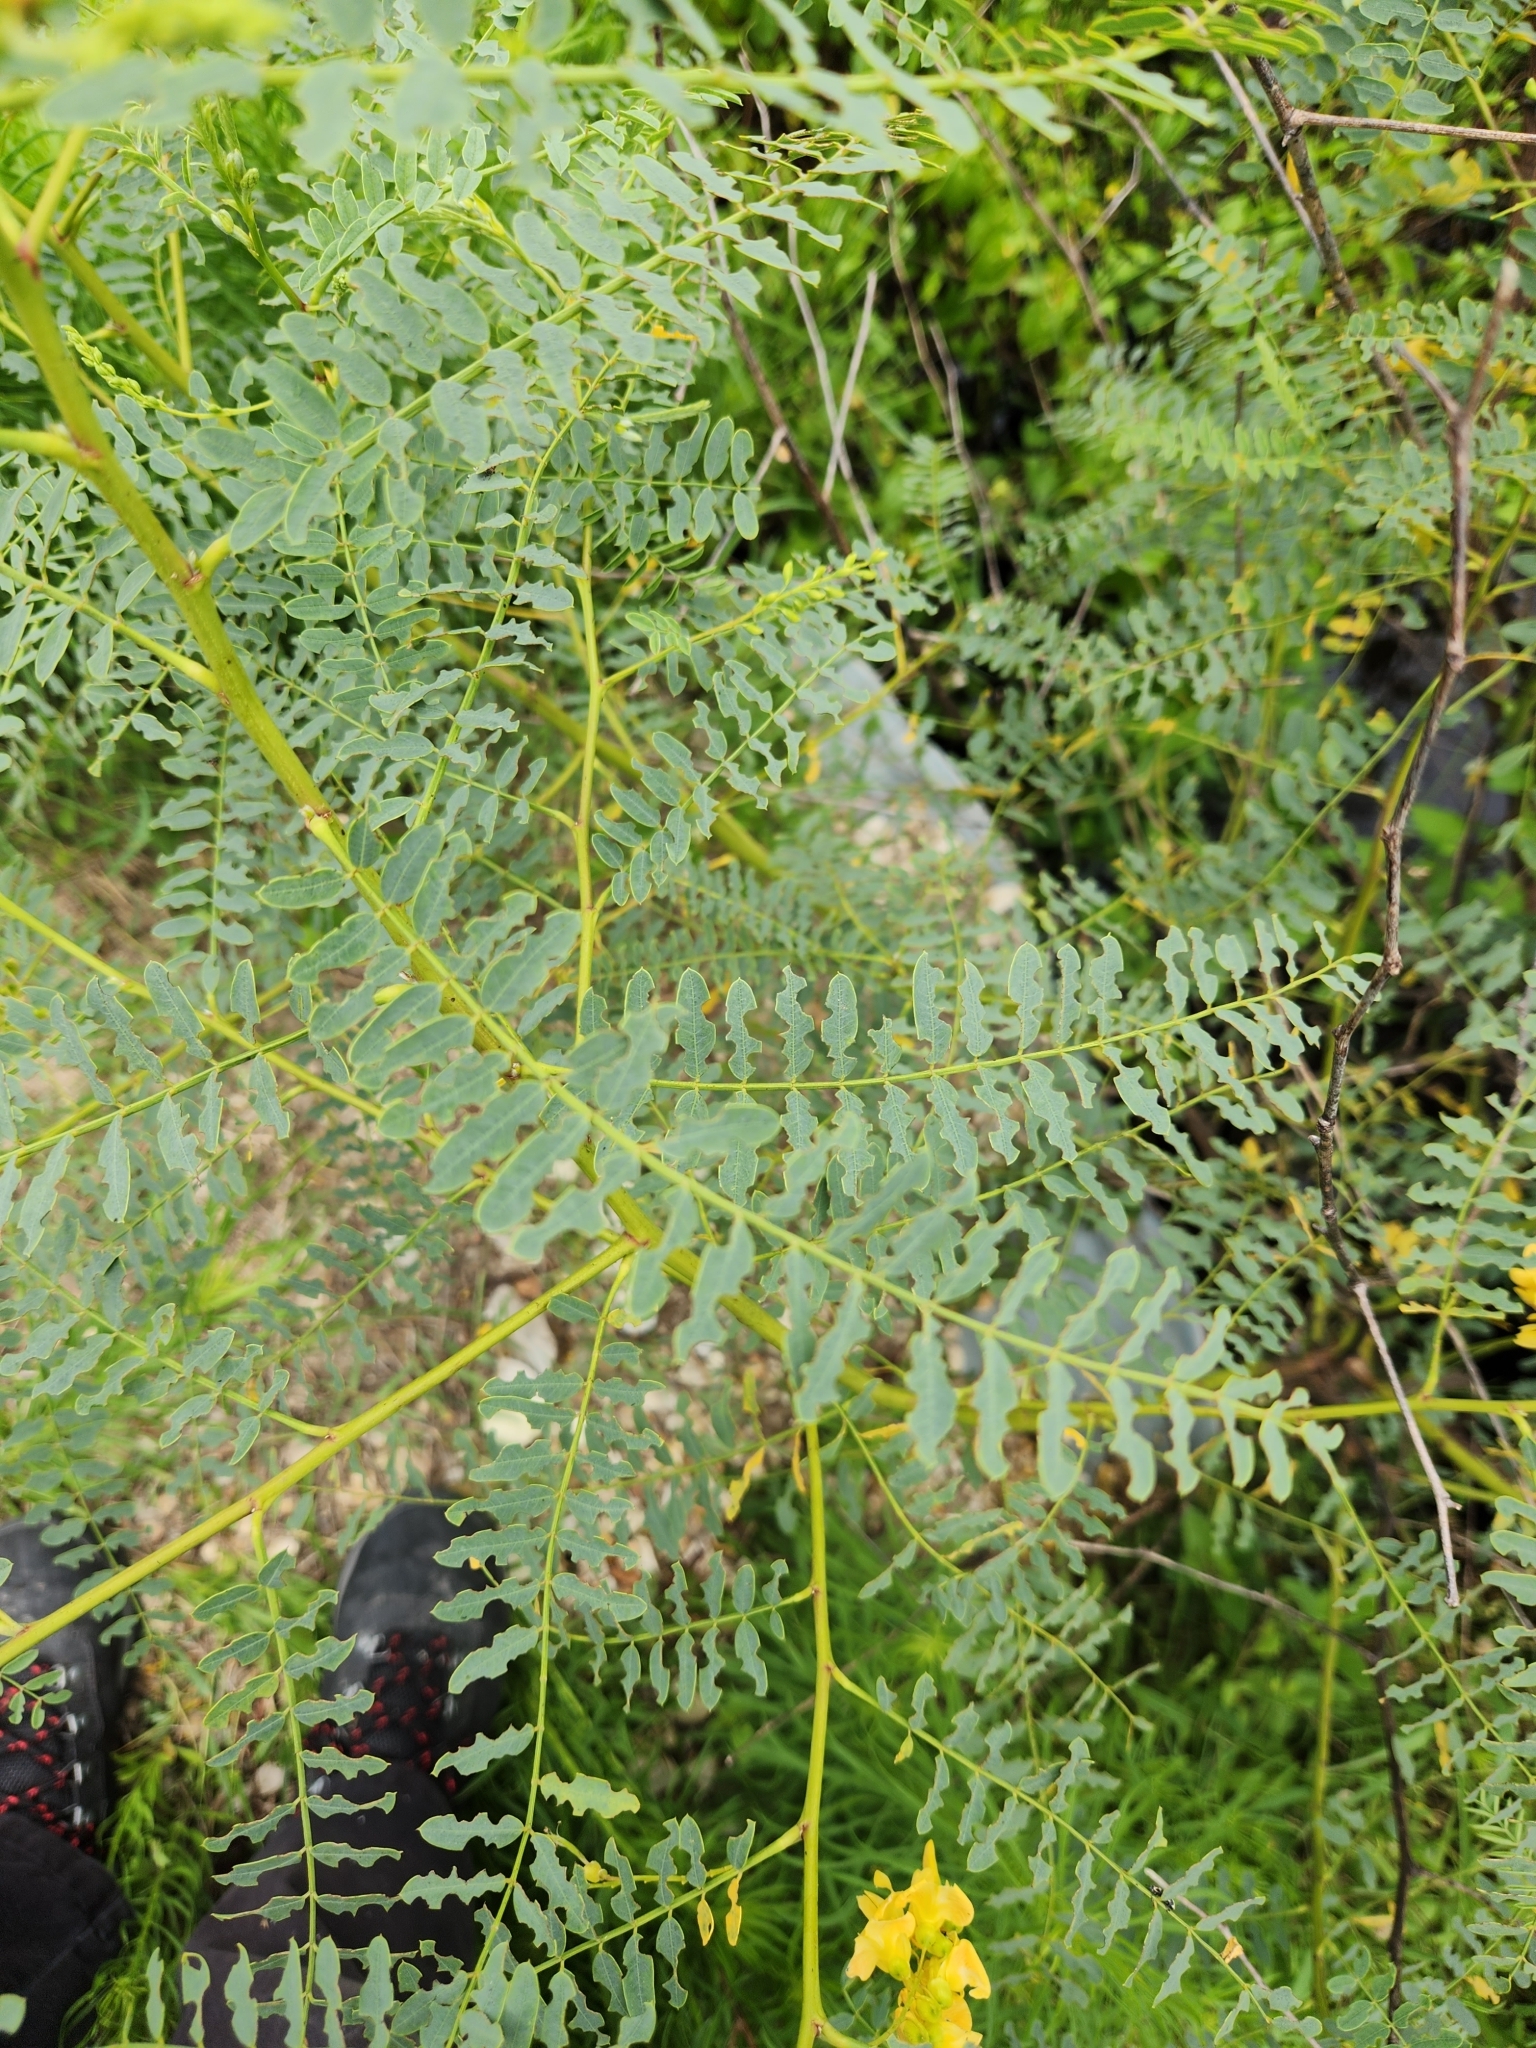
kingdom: Plantae
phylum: Tracheophyta
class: Magnoliopsida
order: Fabales
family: Fabaceae
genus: Sesbania
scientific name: Sesbania drummondii
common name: Poison-bean
